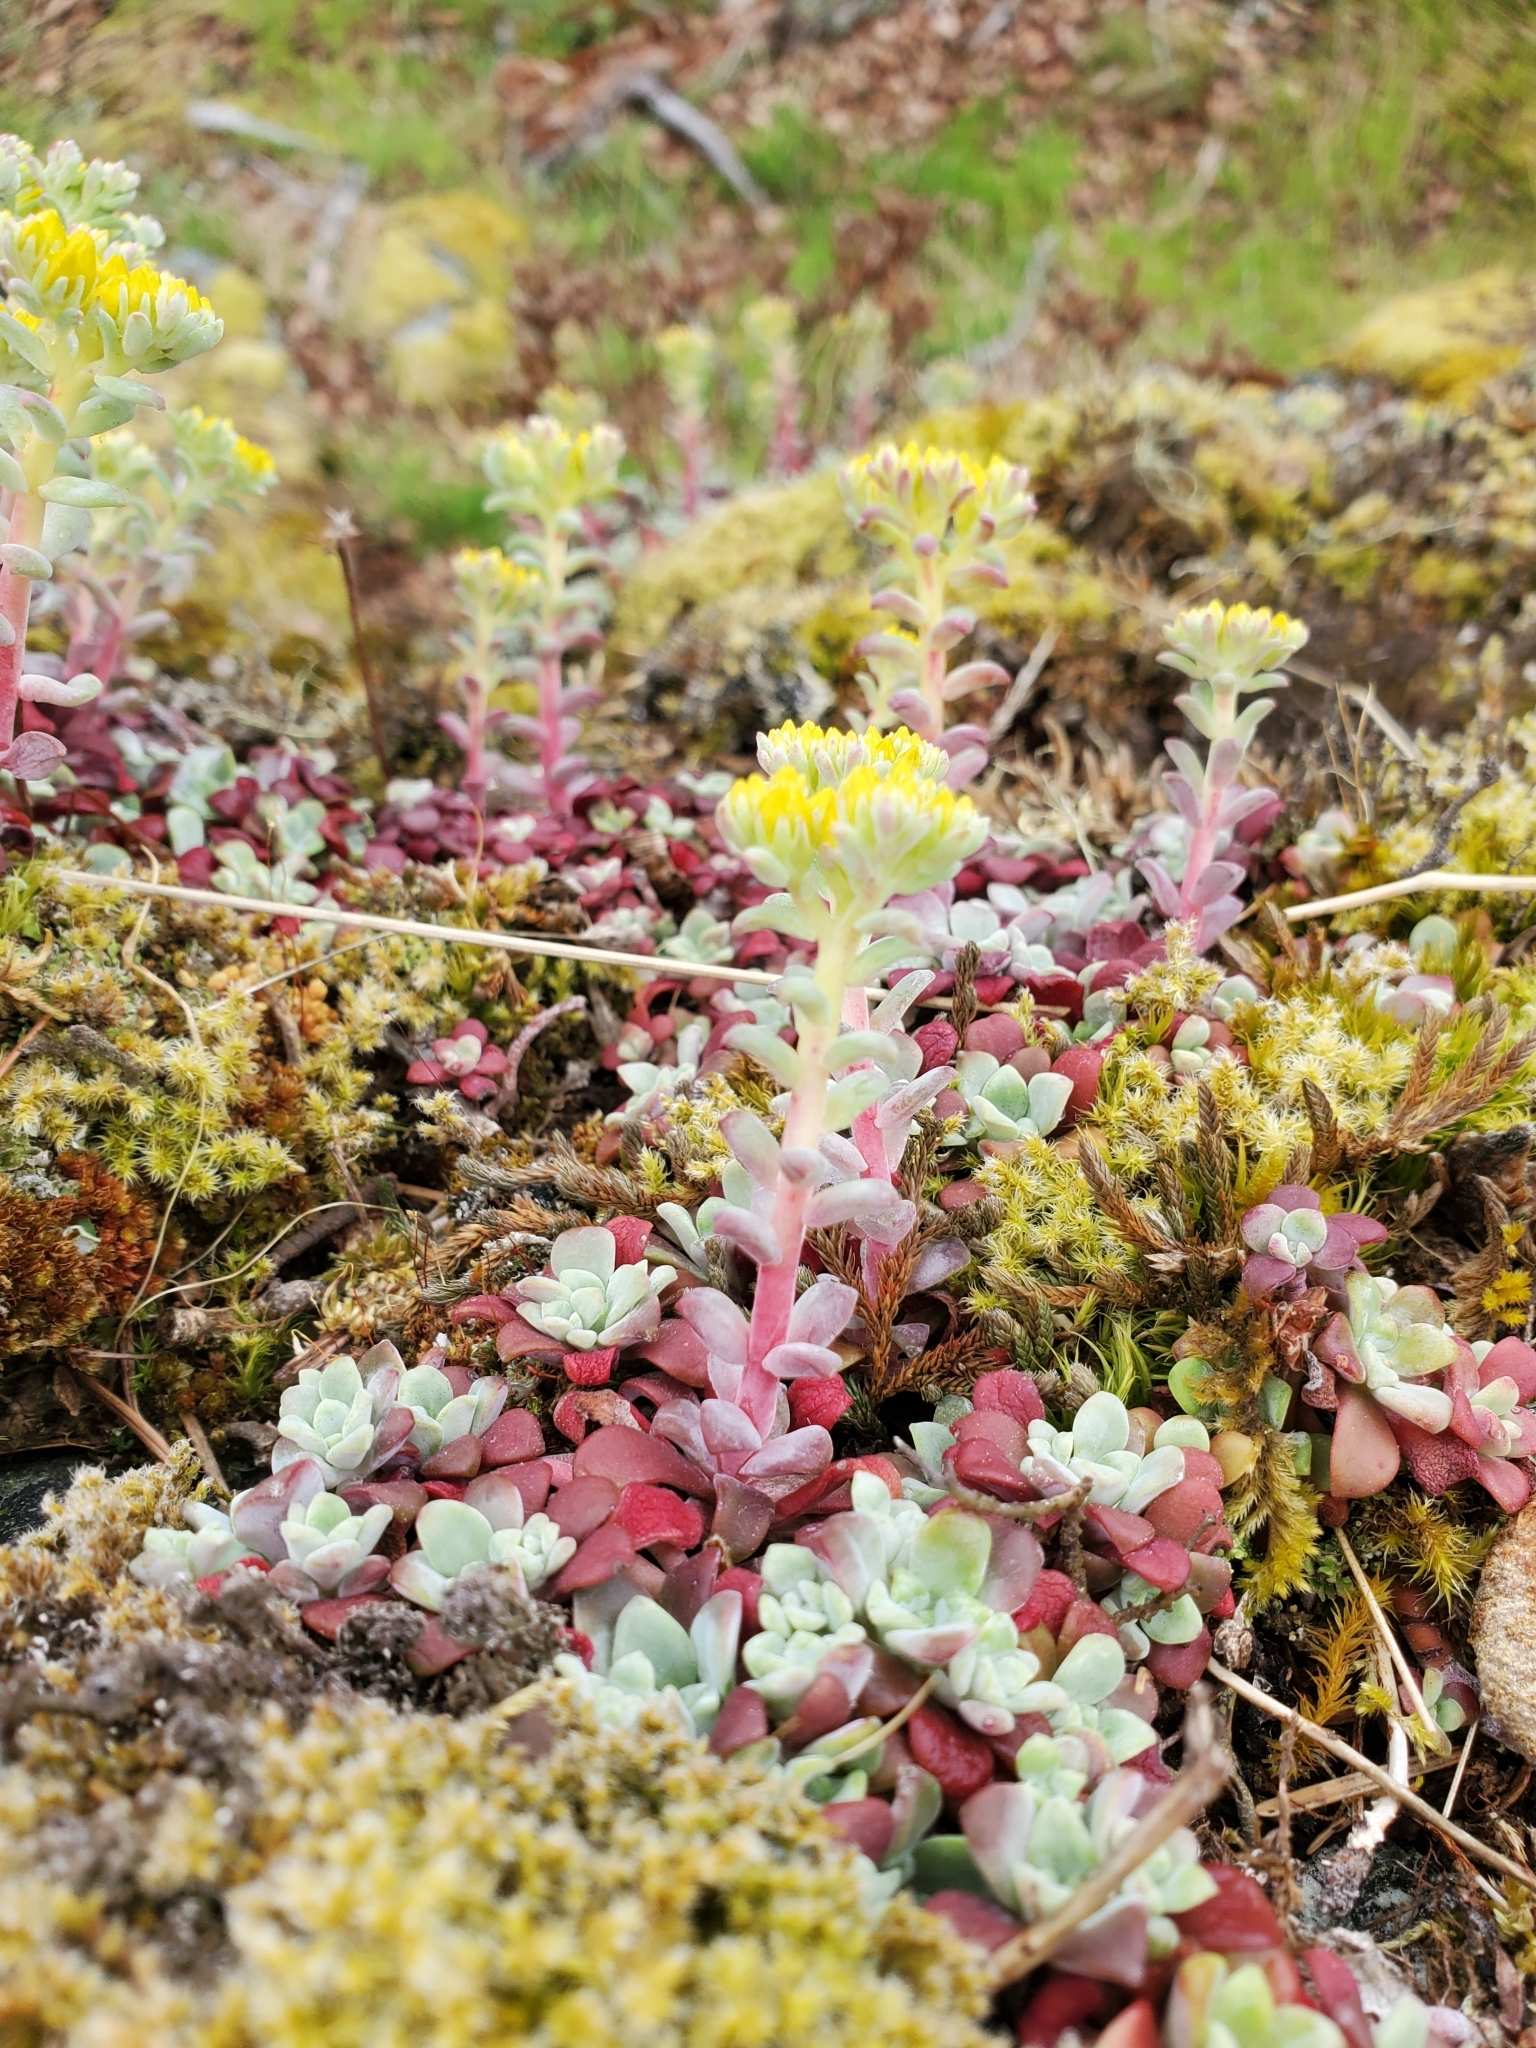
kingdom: Plantae
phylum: Tracheophyta
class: Magnoliopsida
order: Saxifragales
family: Crassulaceae
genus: Sedum
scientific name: Sedum spathulifolium
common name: Colorado stonecrop
